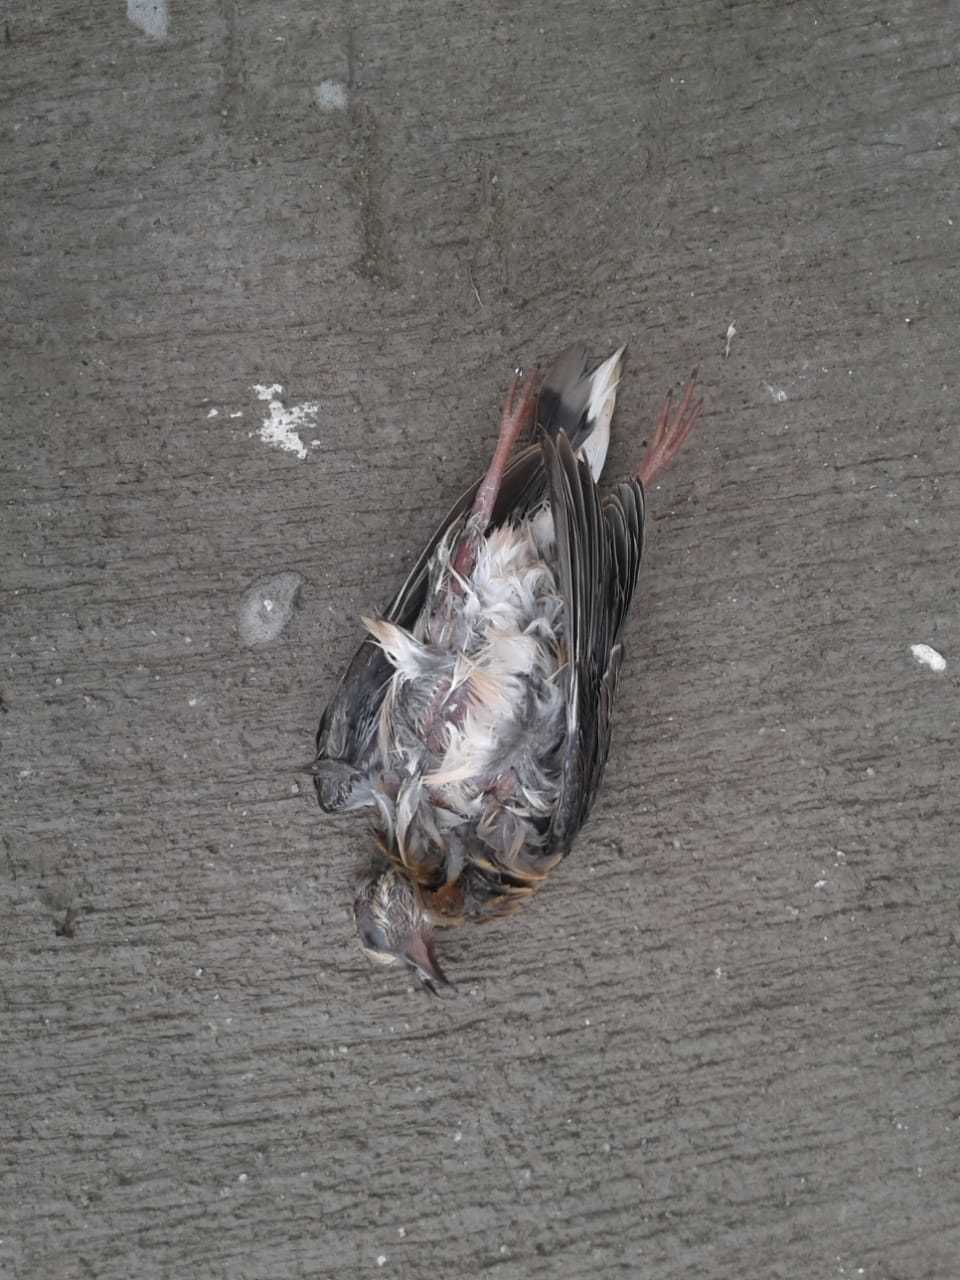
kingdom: Animalia
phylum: Chordata
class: Aves
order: Columbiformes
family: Columbidae
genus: Zenaida
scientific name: Zenaida auriculata
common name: Eared dove
